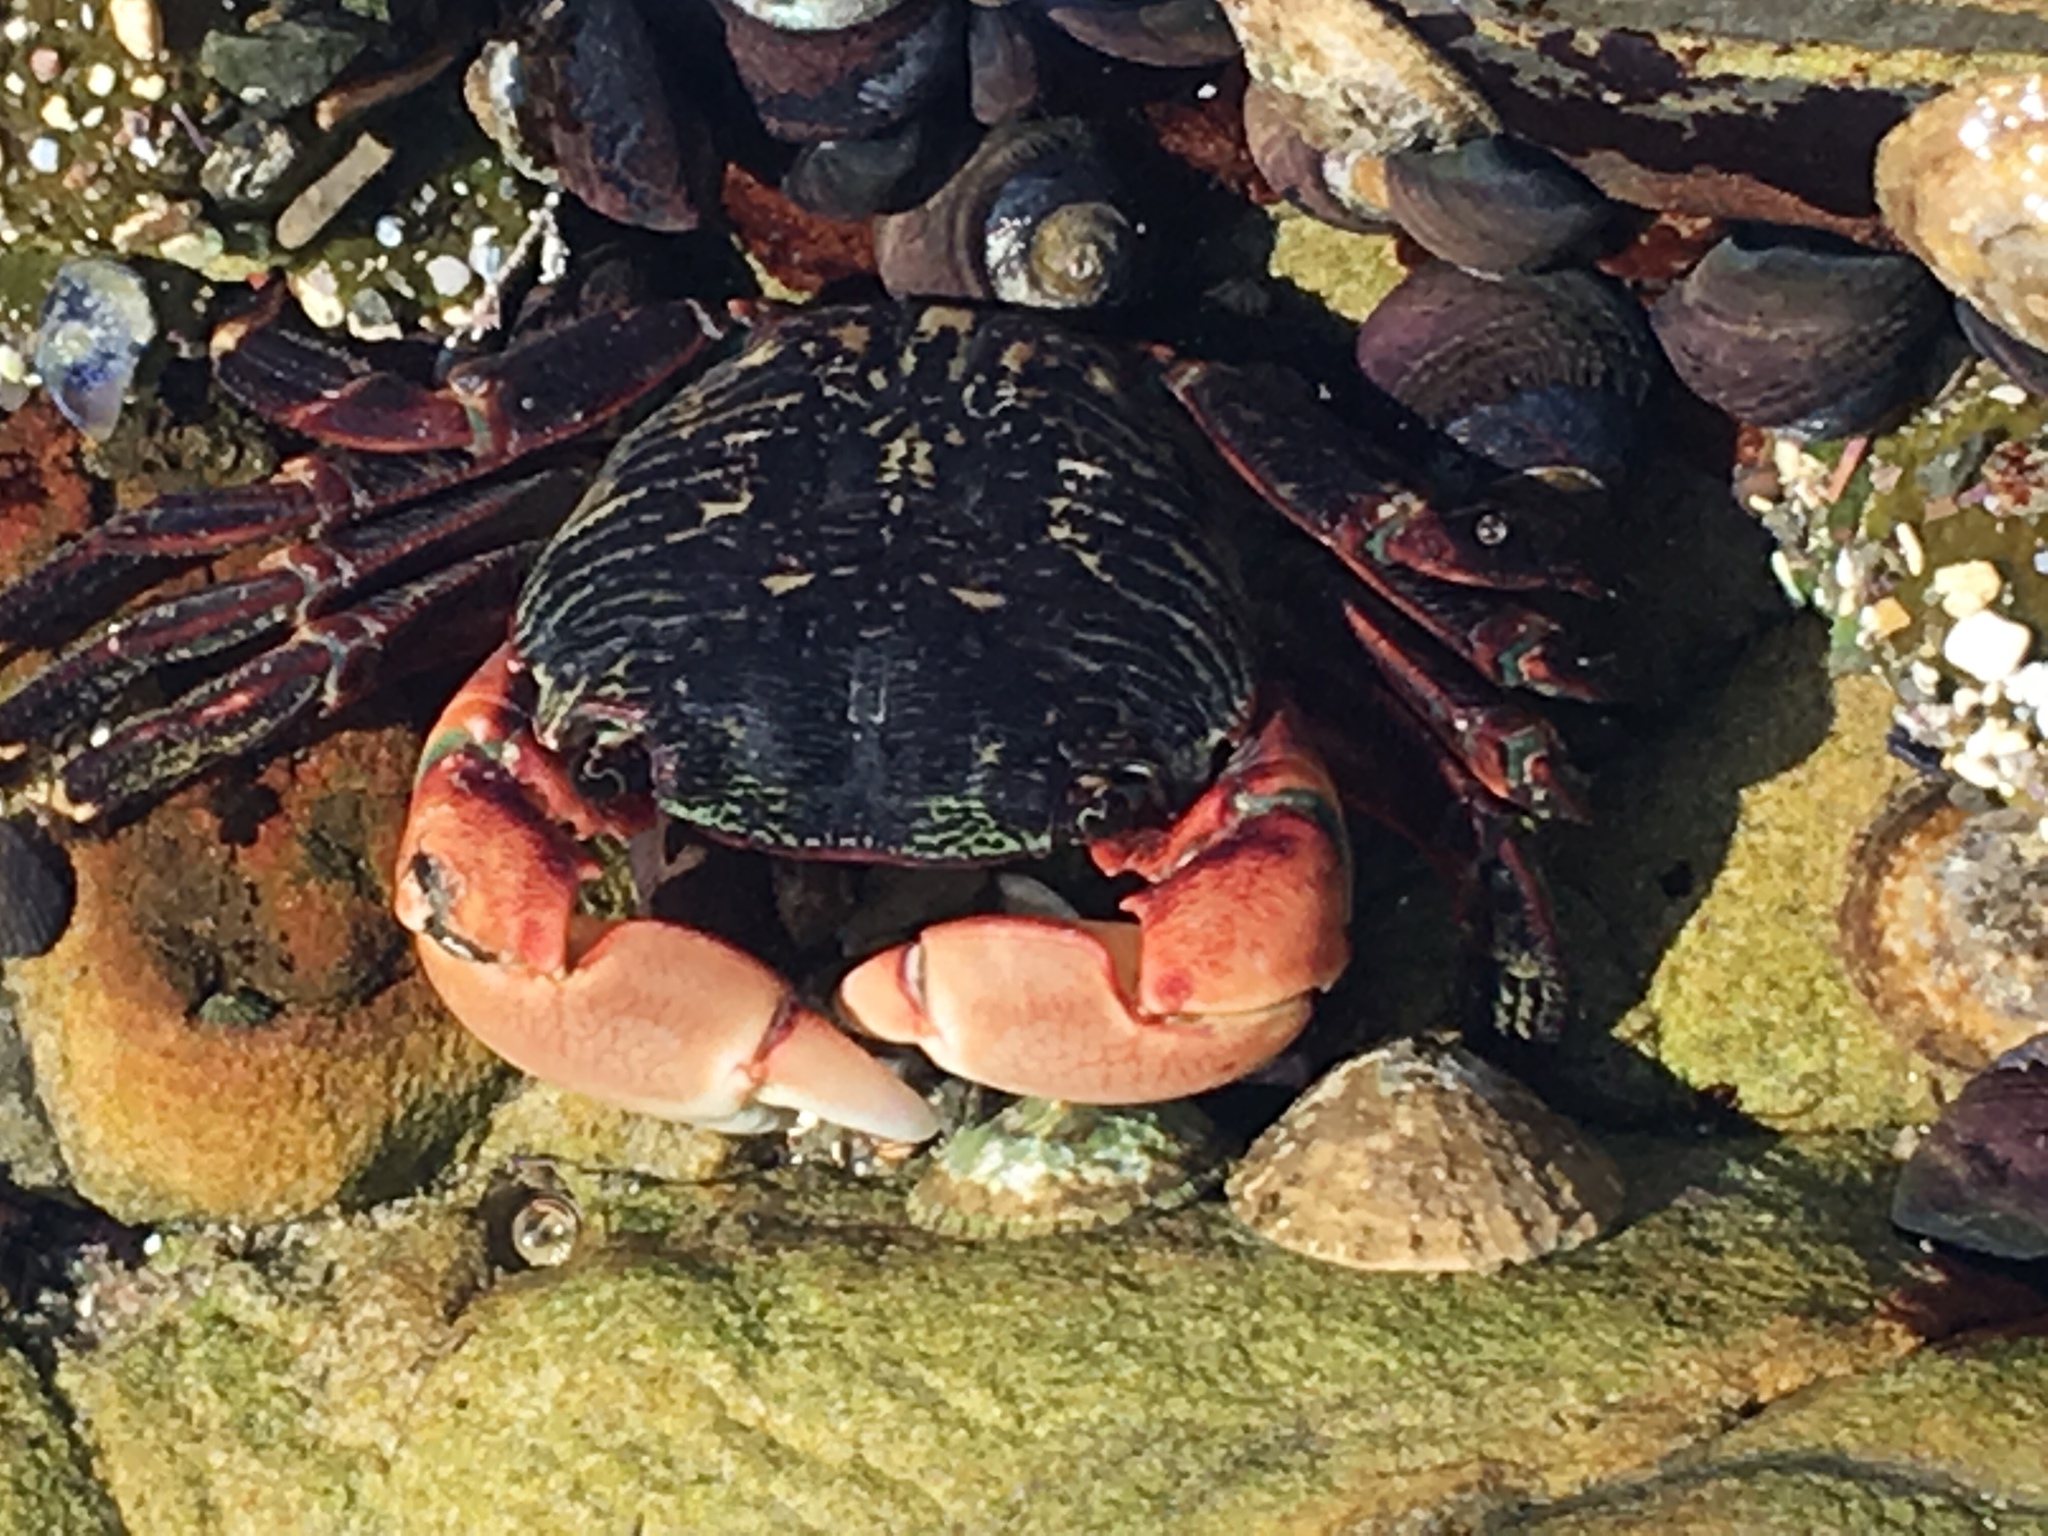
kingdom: Animalia
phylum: Arthropoda
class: Malacostraca
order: Decapoda
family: Grapsidae
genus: Pachygrapsus
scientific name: Pachygrapsus crassipes
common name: Striped shore crab
